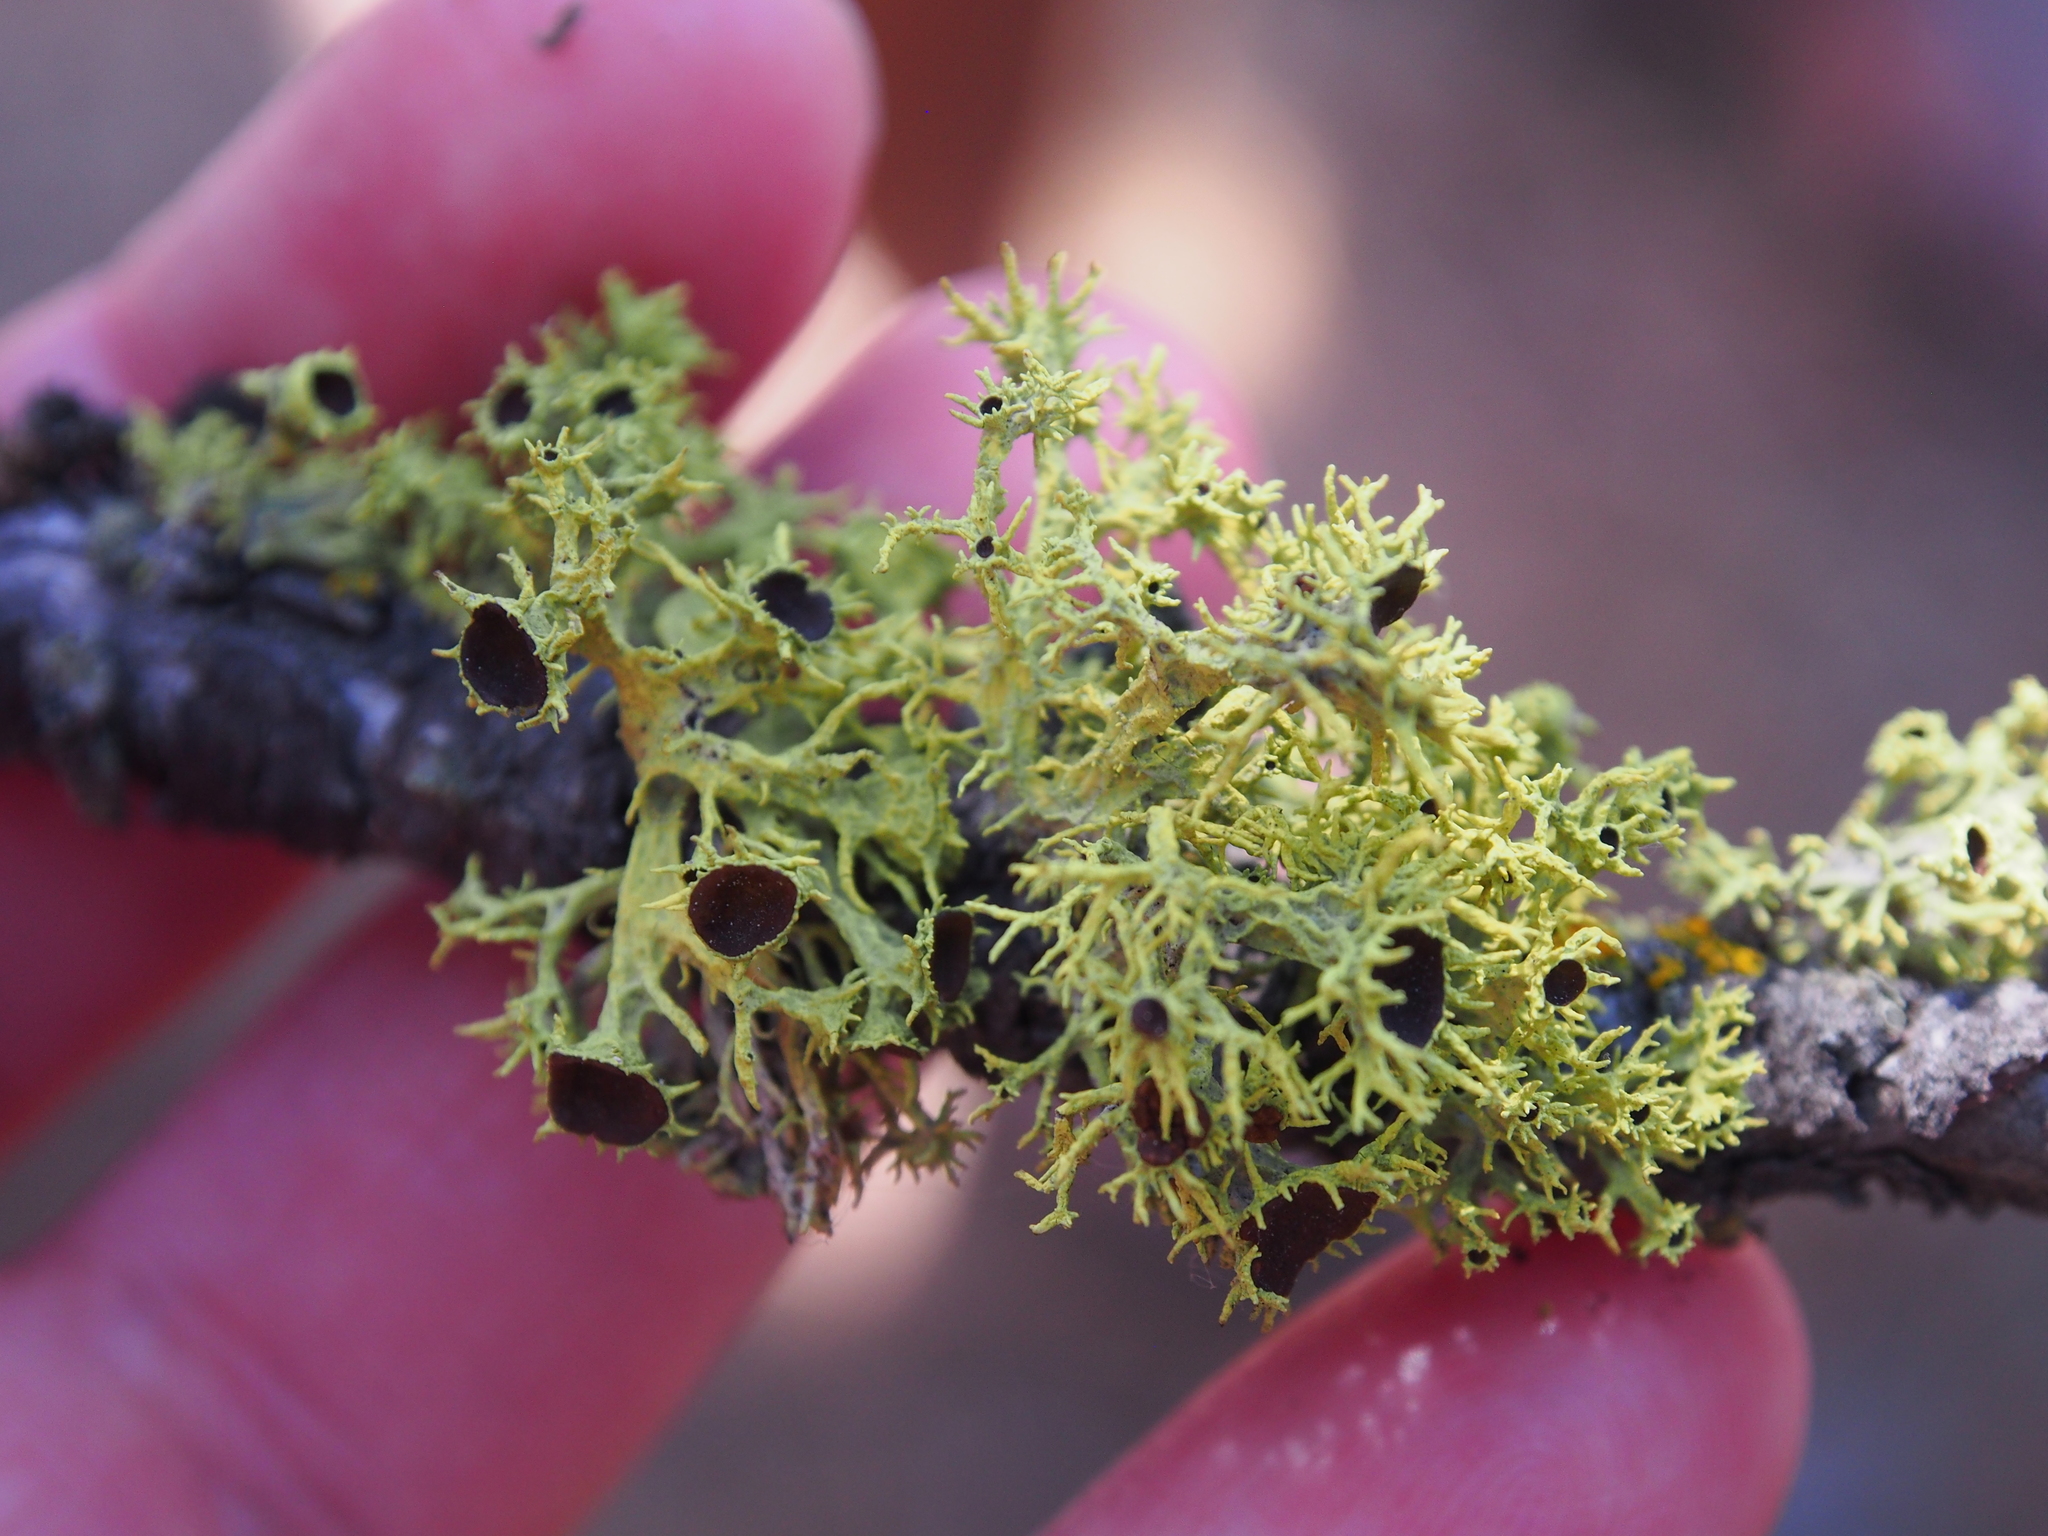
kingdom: Fungi
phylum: Ascomycota
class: Lecanoromycetes
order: Lecanorales
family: Parmeliaceae
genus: Letharia
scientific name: Letharia columbiana
